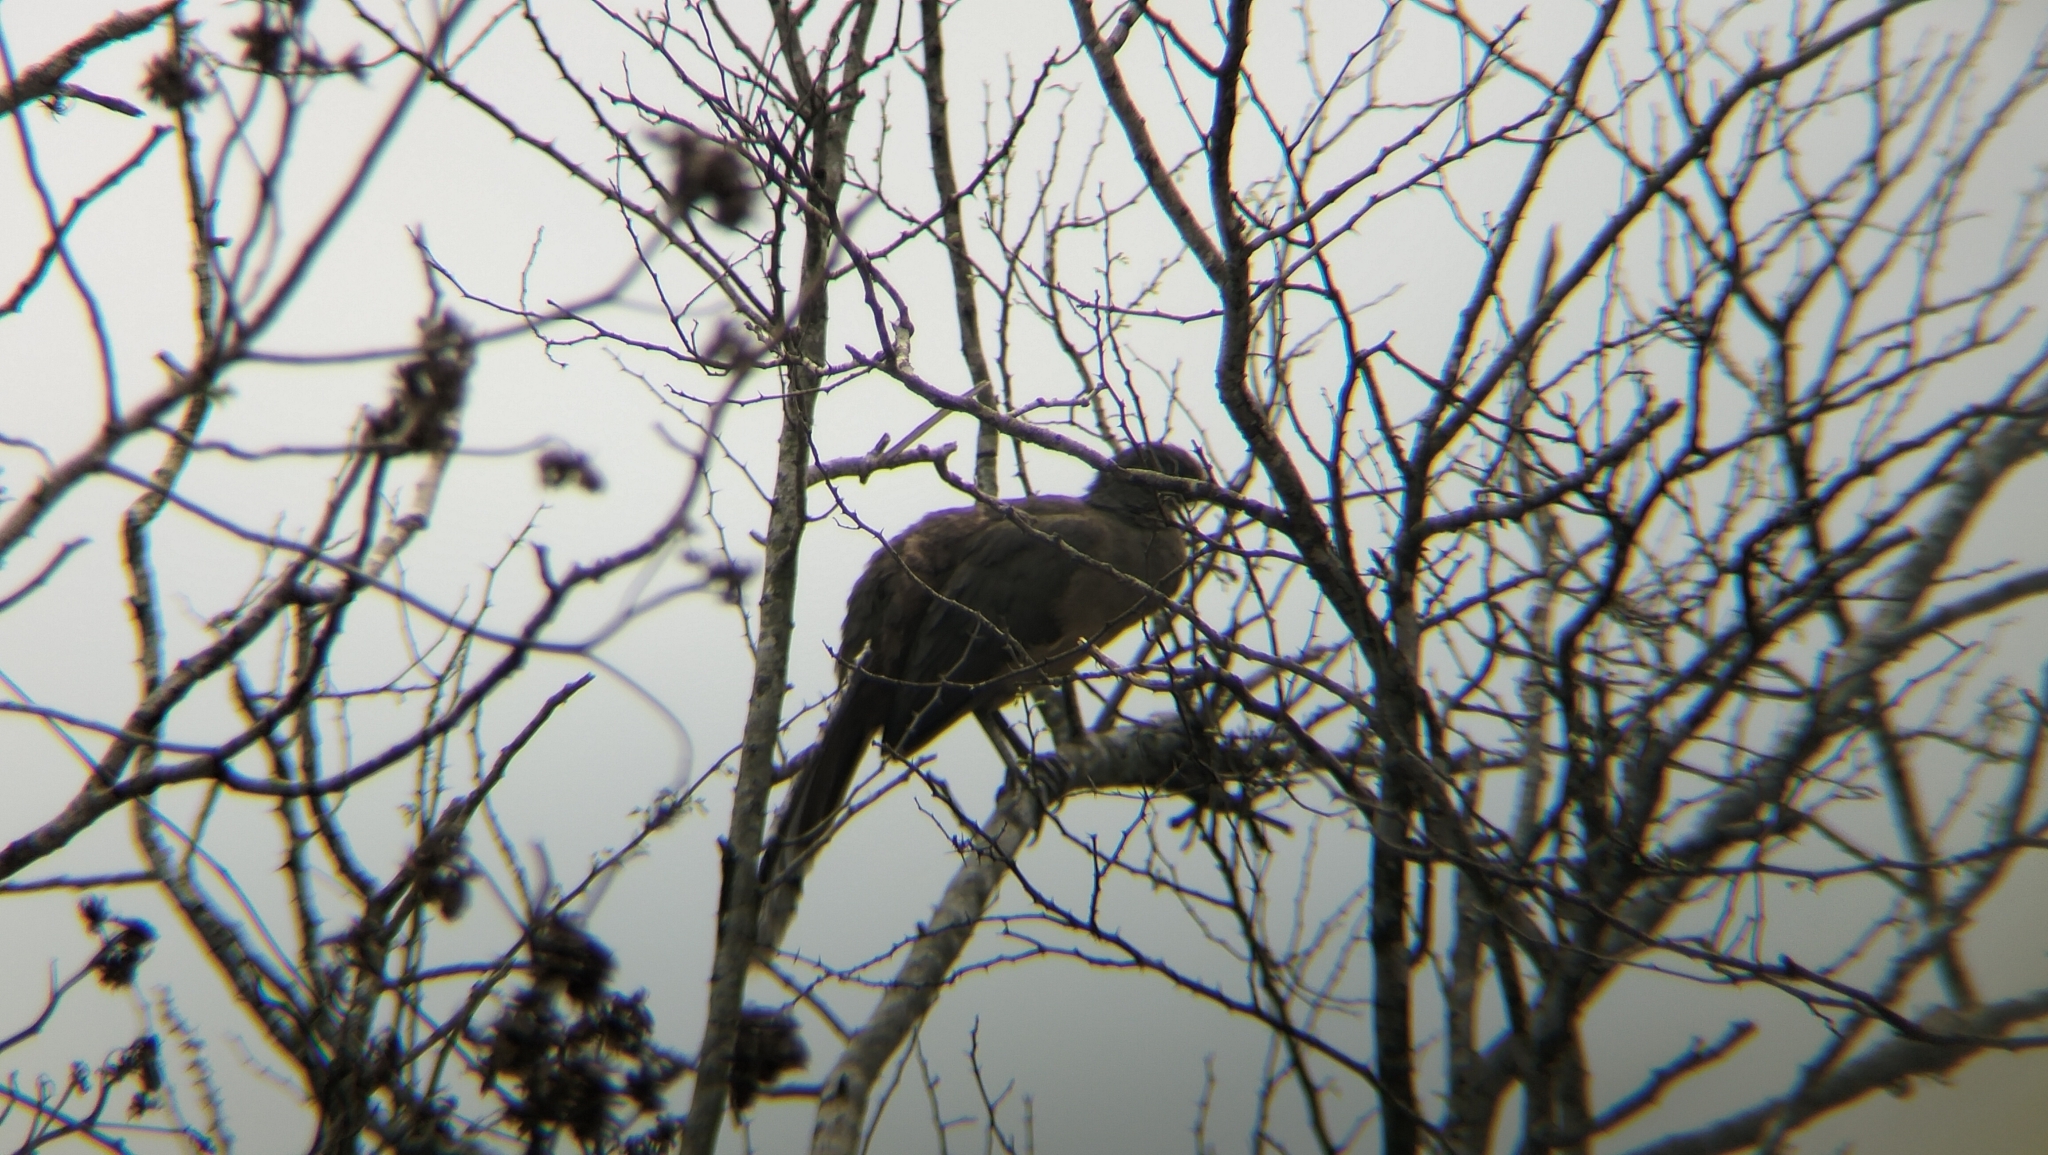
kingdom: Animalia
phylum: Chordata
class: Aves
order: Galliformes
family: Cracidae
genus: Ortalis
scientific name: Ortalis vetula
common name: Plain chachalaca
